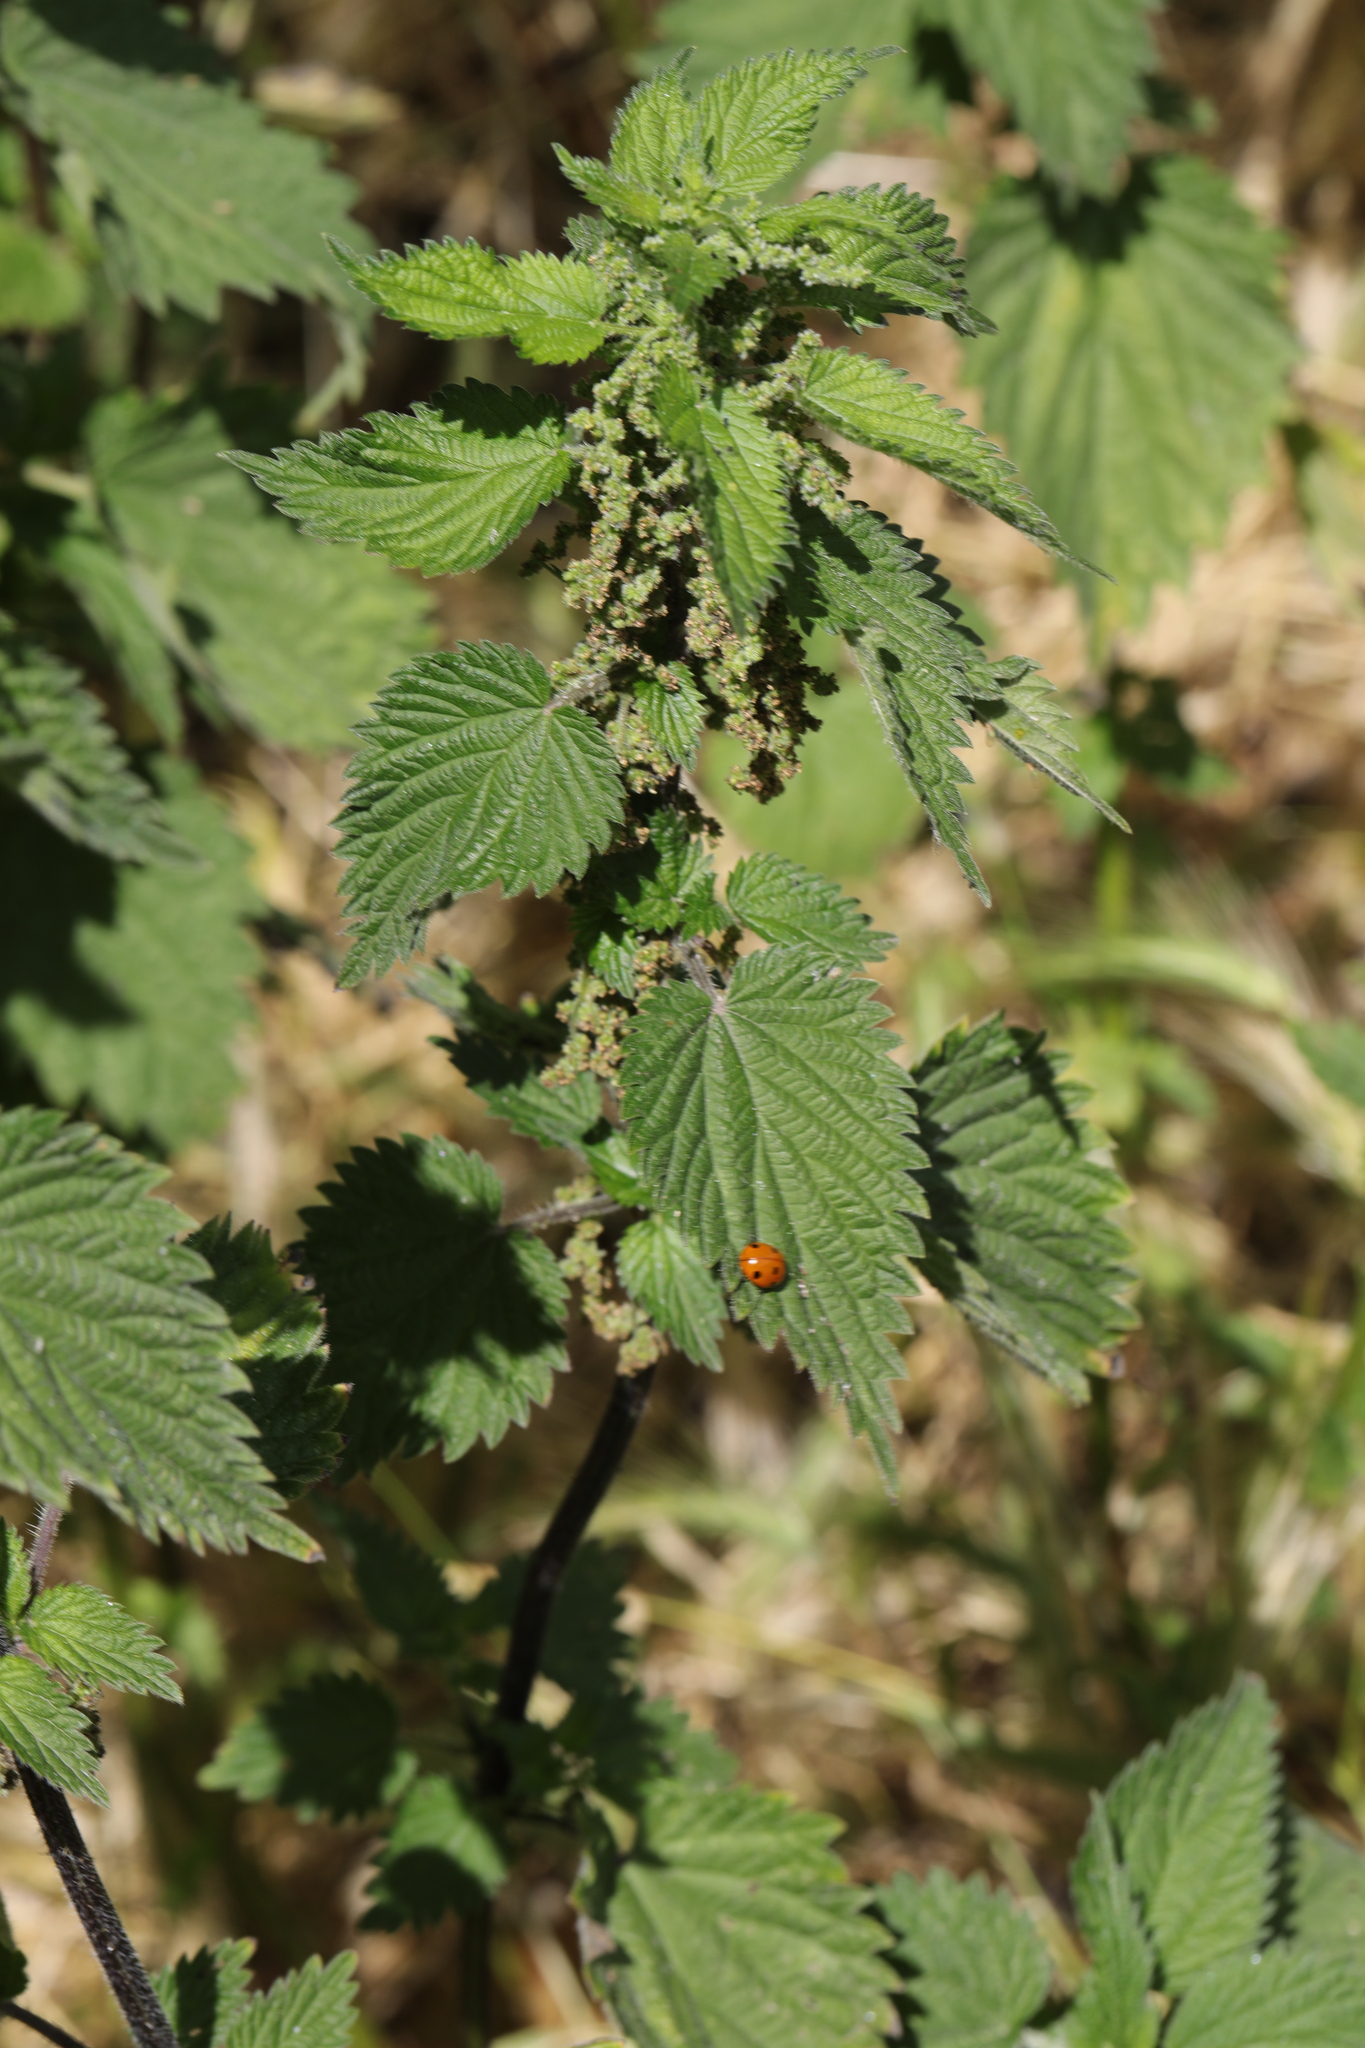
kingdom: Plantae
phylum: Tracheophyta
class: Magnoliopsida
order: Rosales
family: Urticaceae
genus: Urtica
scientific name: Urtica dioica
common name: Common nettle
